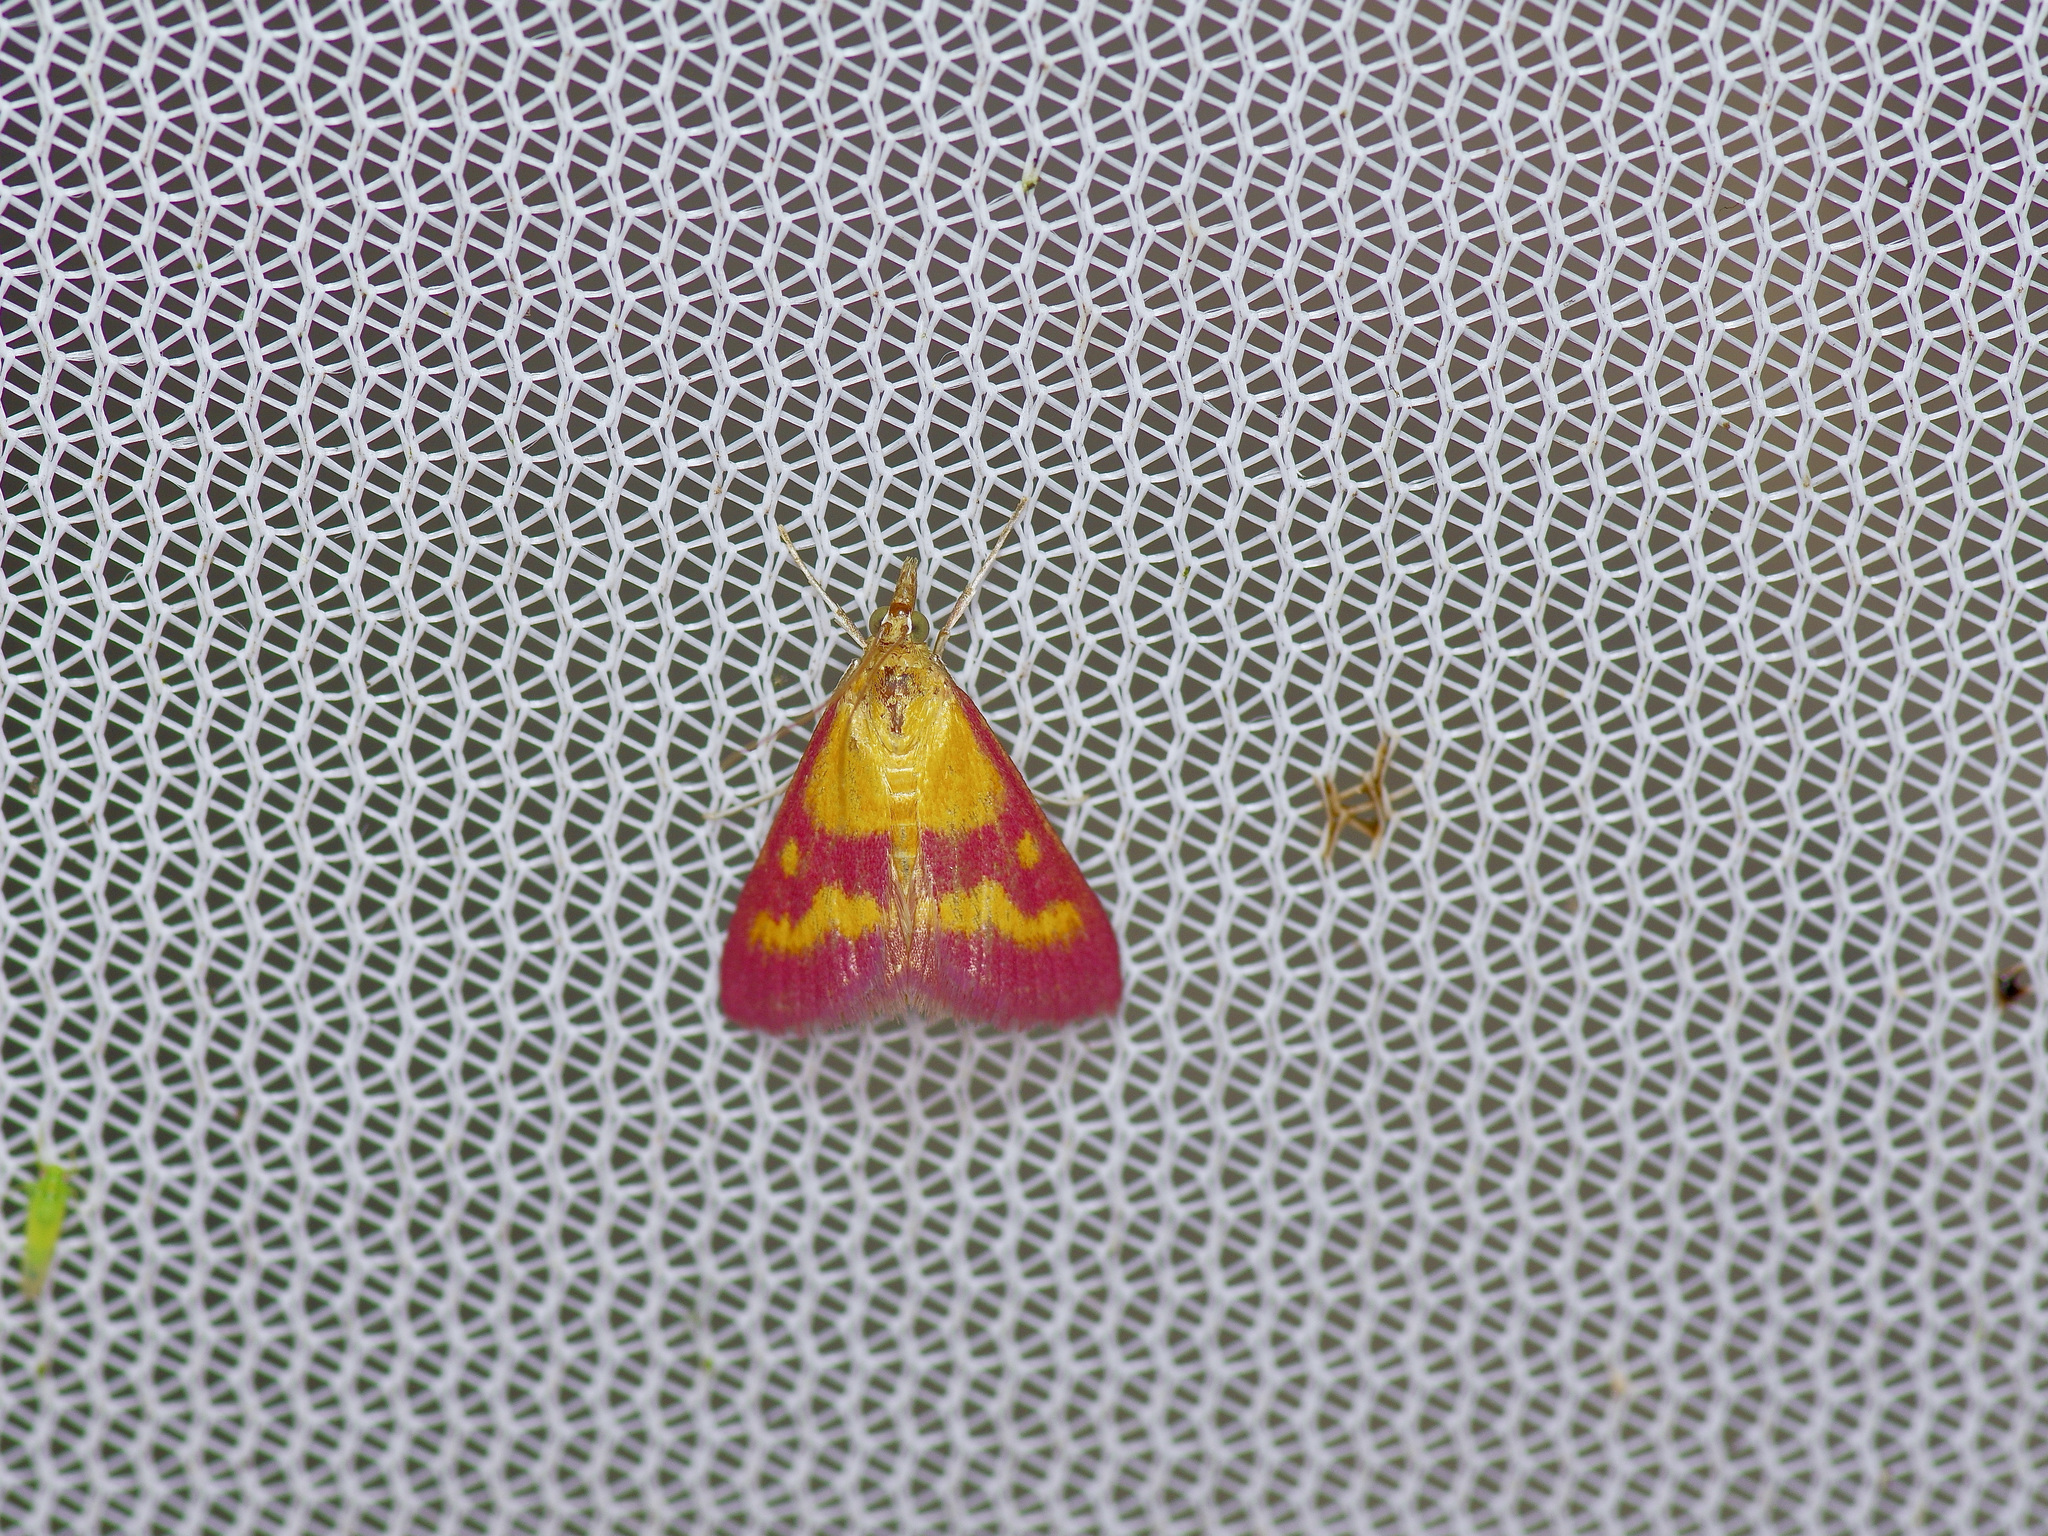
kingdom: Animalia
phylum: Arthropoda
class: Insecta
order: Lepidoptera
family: Crambidae
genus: Pyrausta
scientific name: Pyrausta laticlavia
